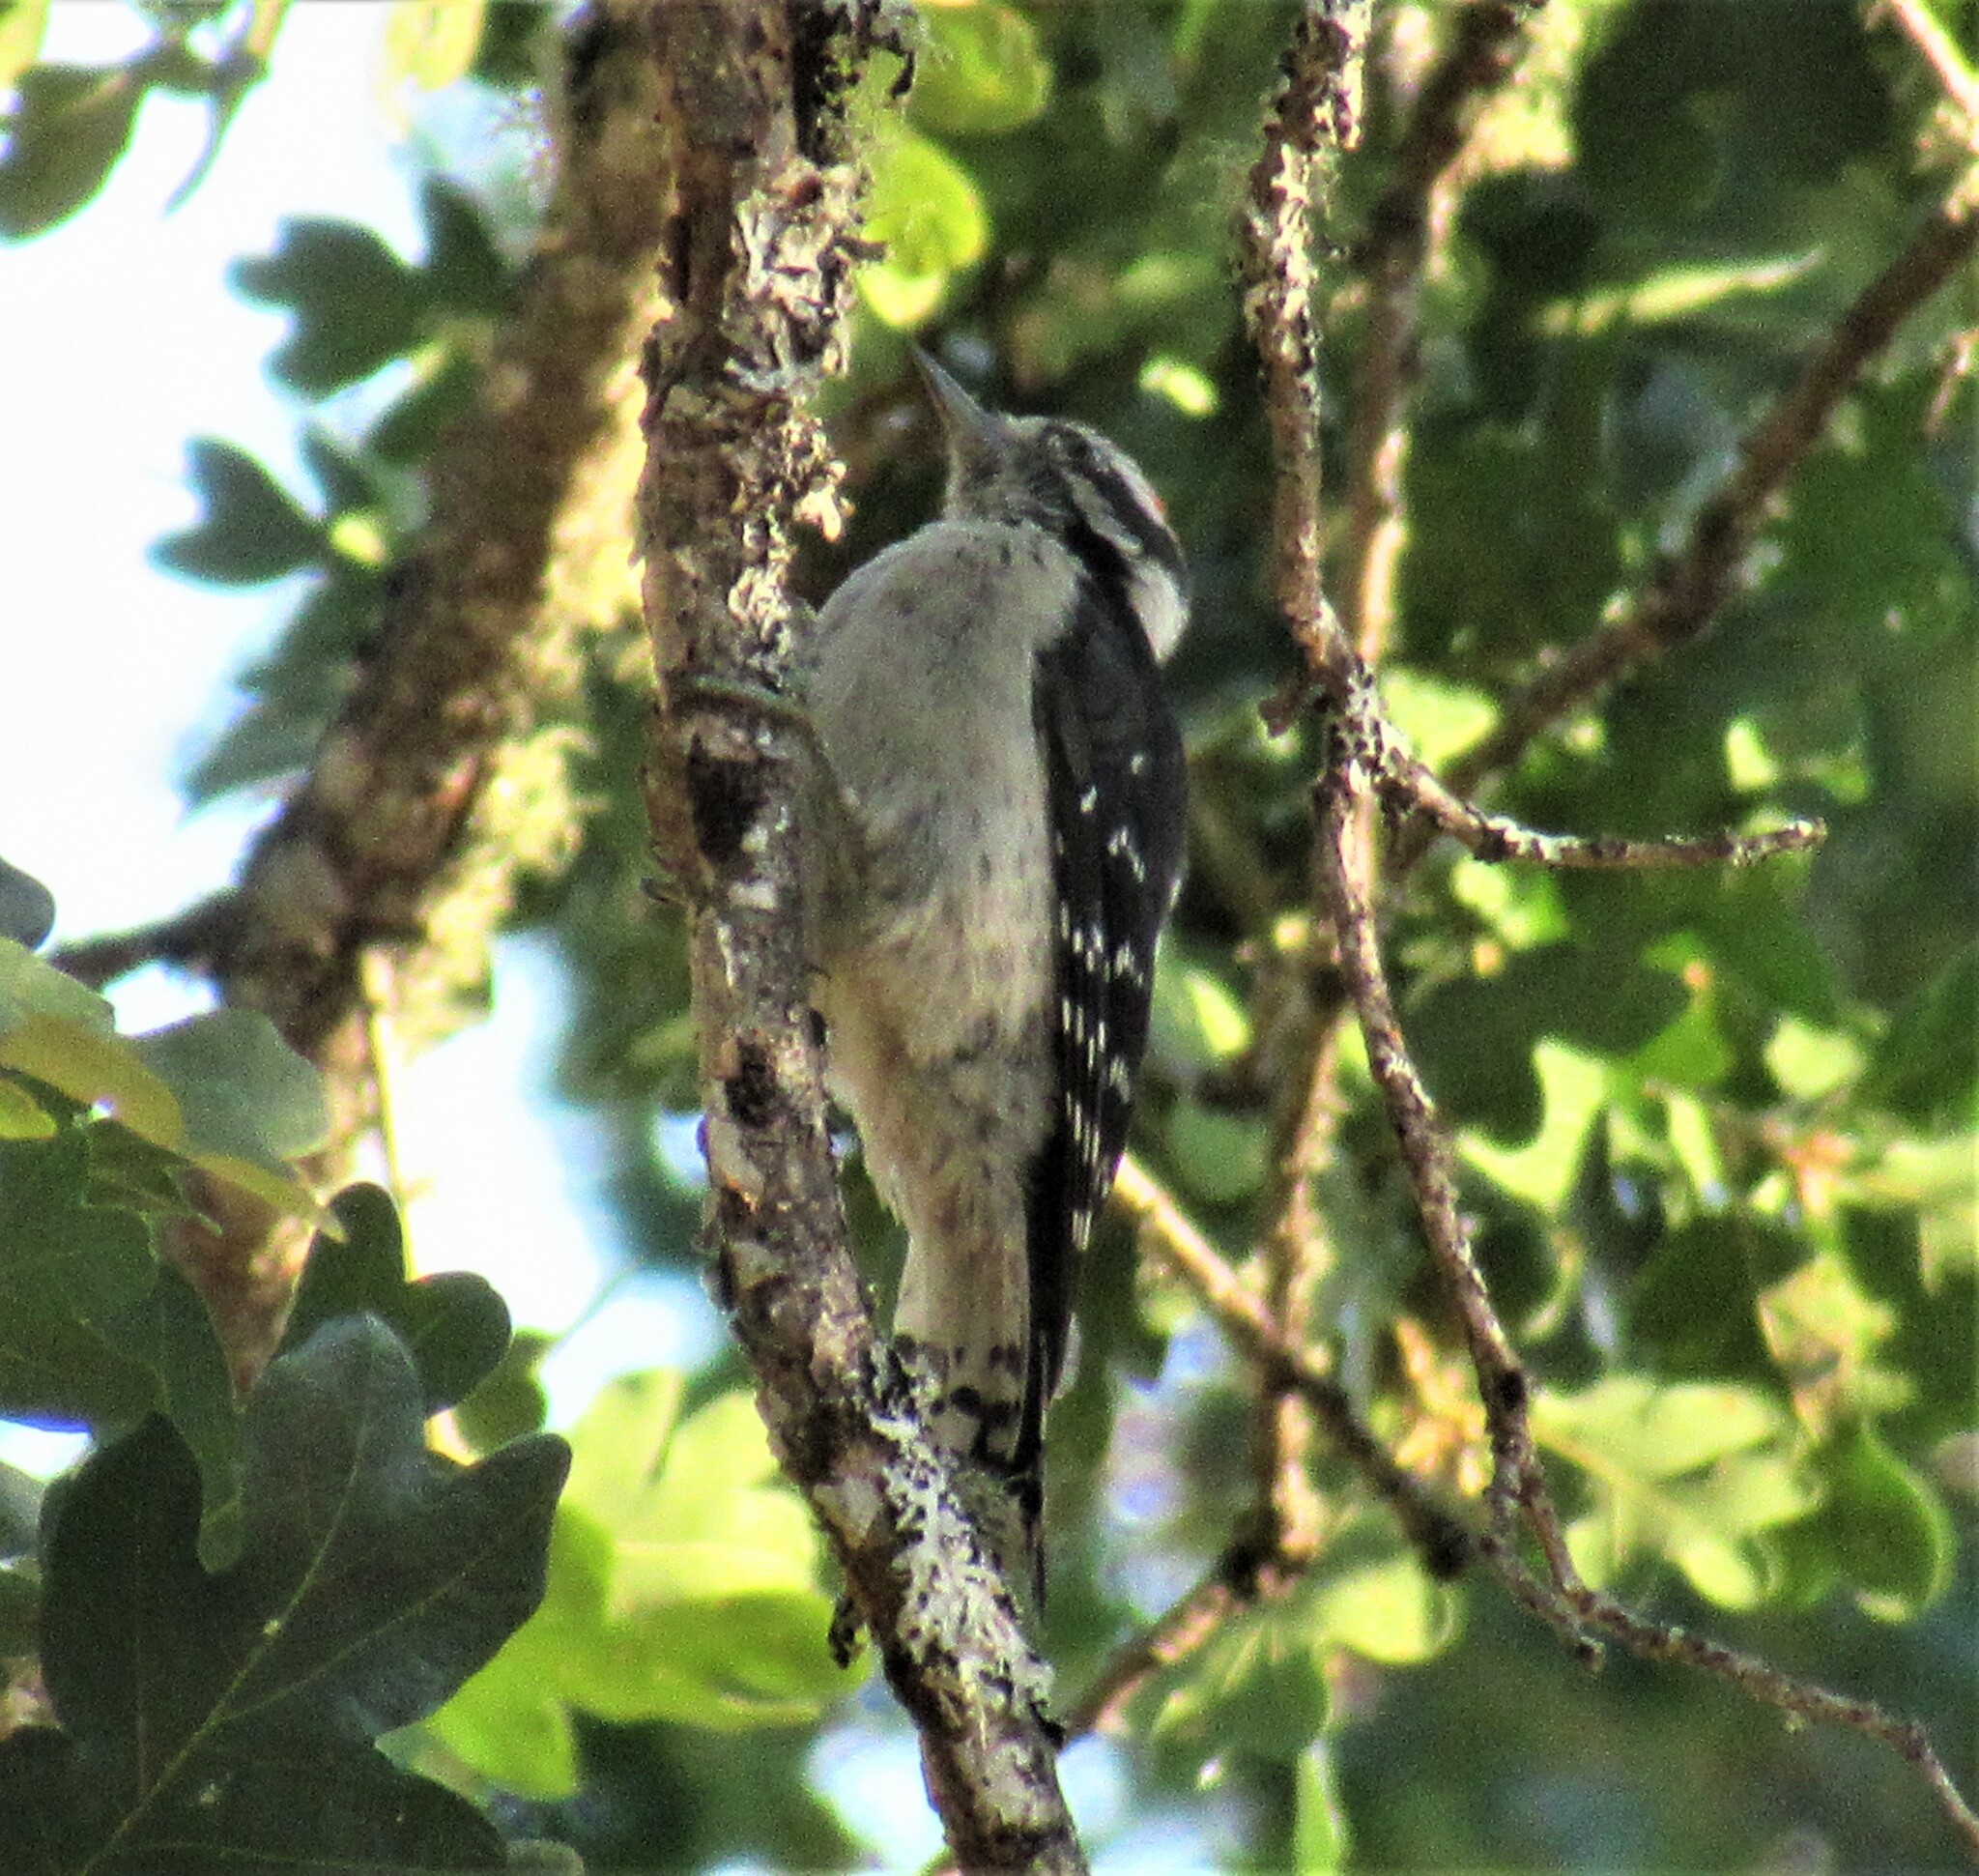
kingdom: Animalia
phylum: Chordata
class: Aves
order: Piciformes
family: Picidae
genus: Dryobates
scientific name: Dryobates pubescens
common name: Downy woodpecker
